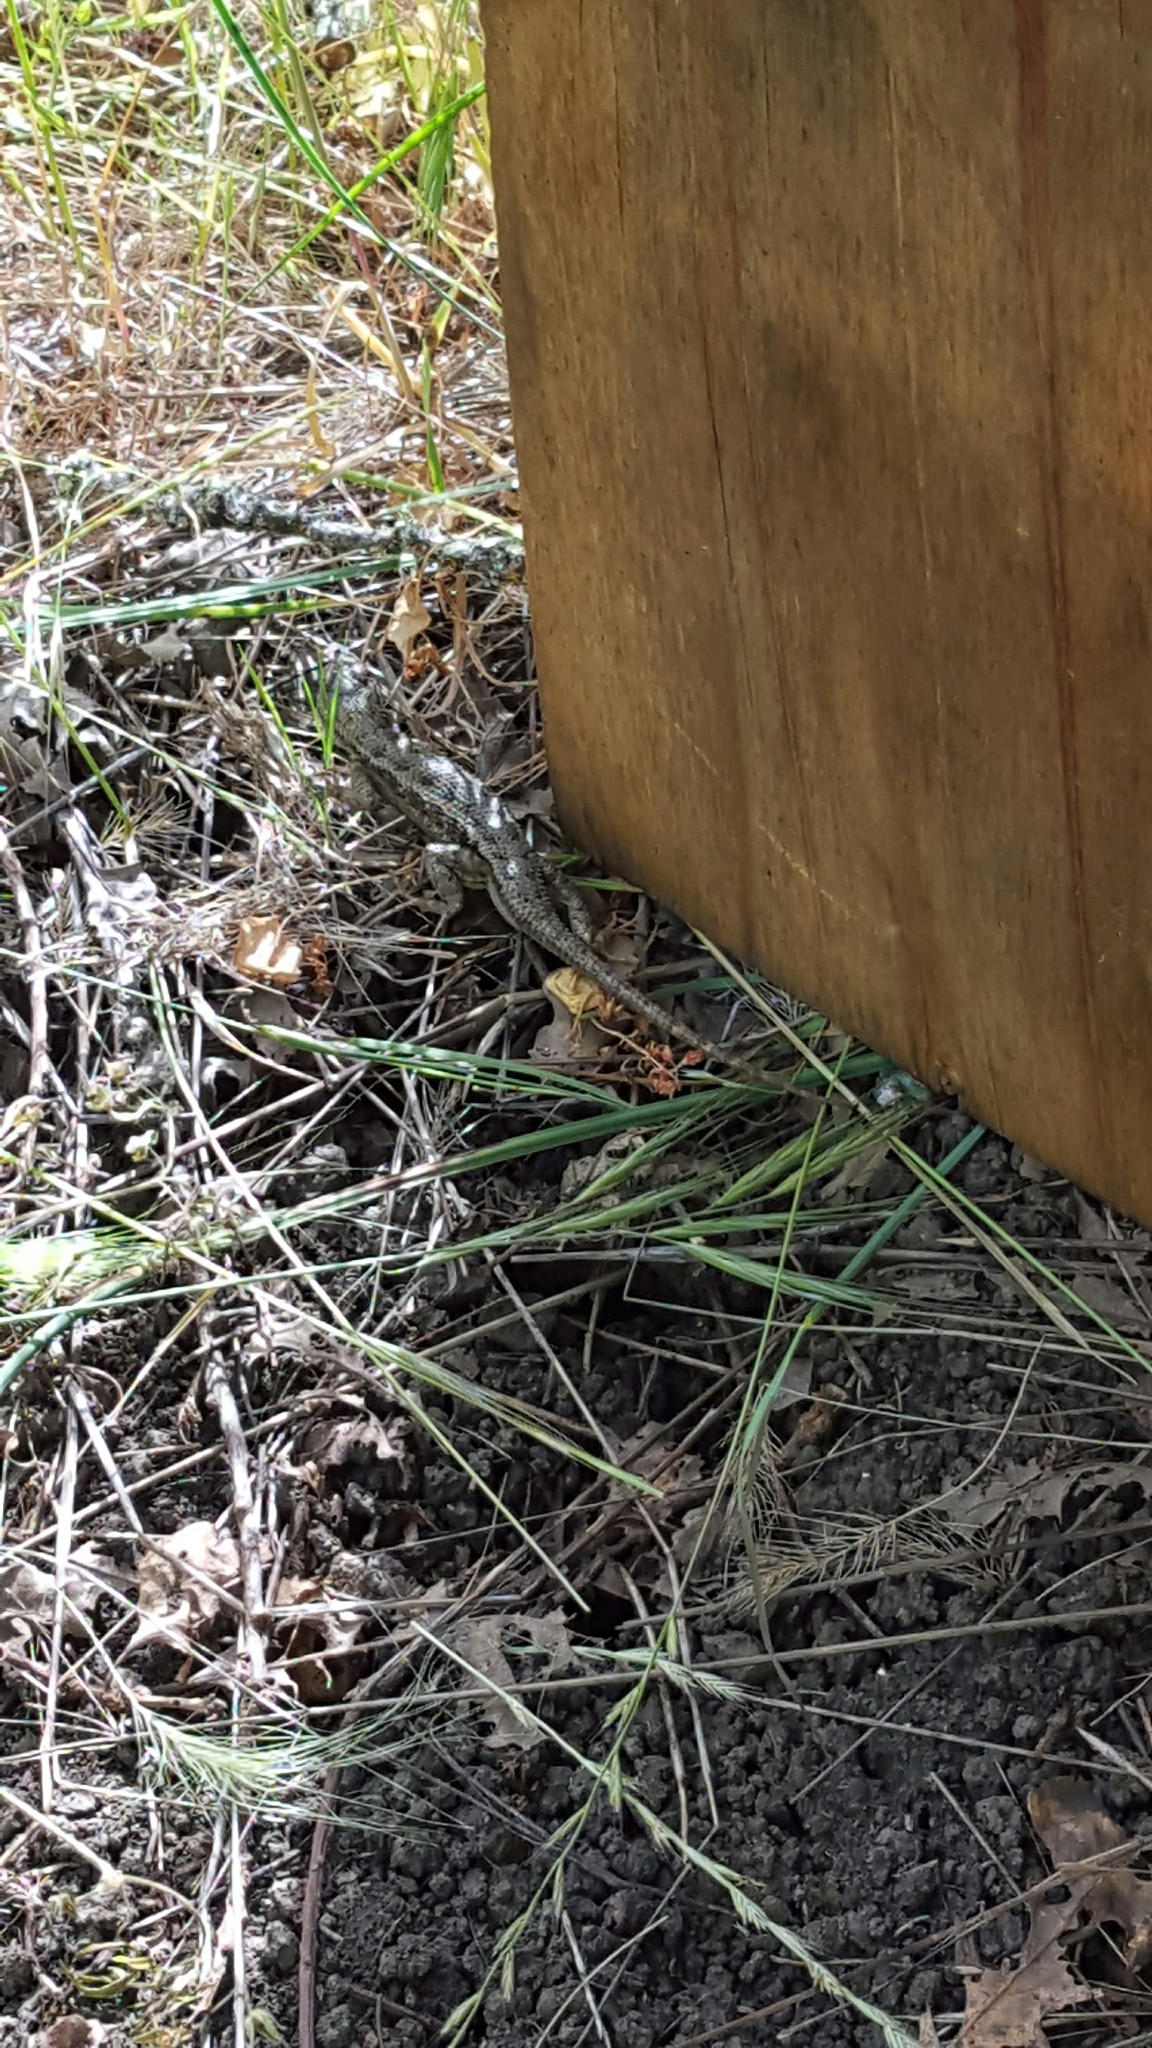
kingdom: Animalia
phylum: Chordata
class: Squamata
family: Phrynosomatidae
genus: Sceloporus
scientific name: Sceloporus occidentalis
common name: Western fence lizard
